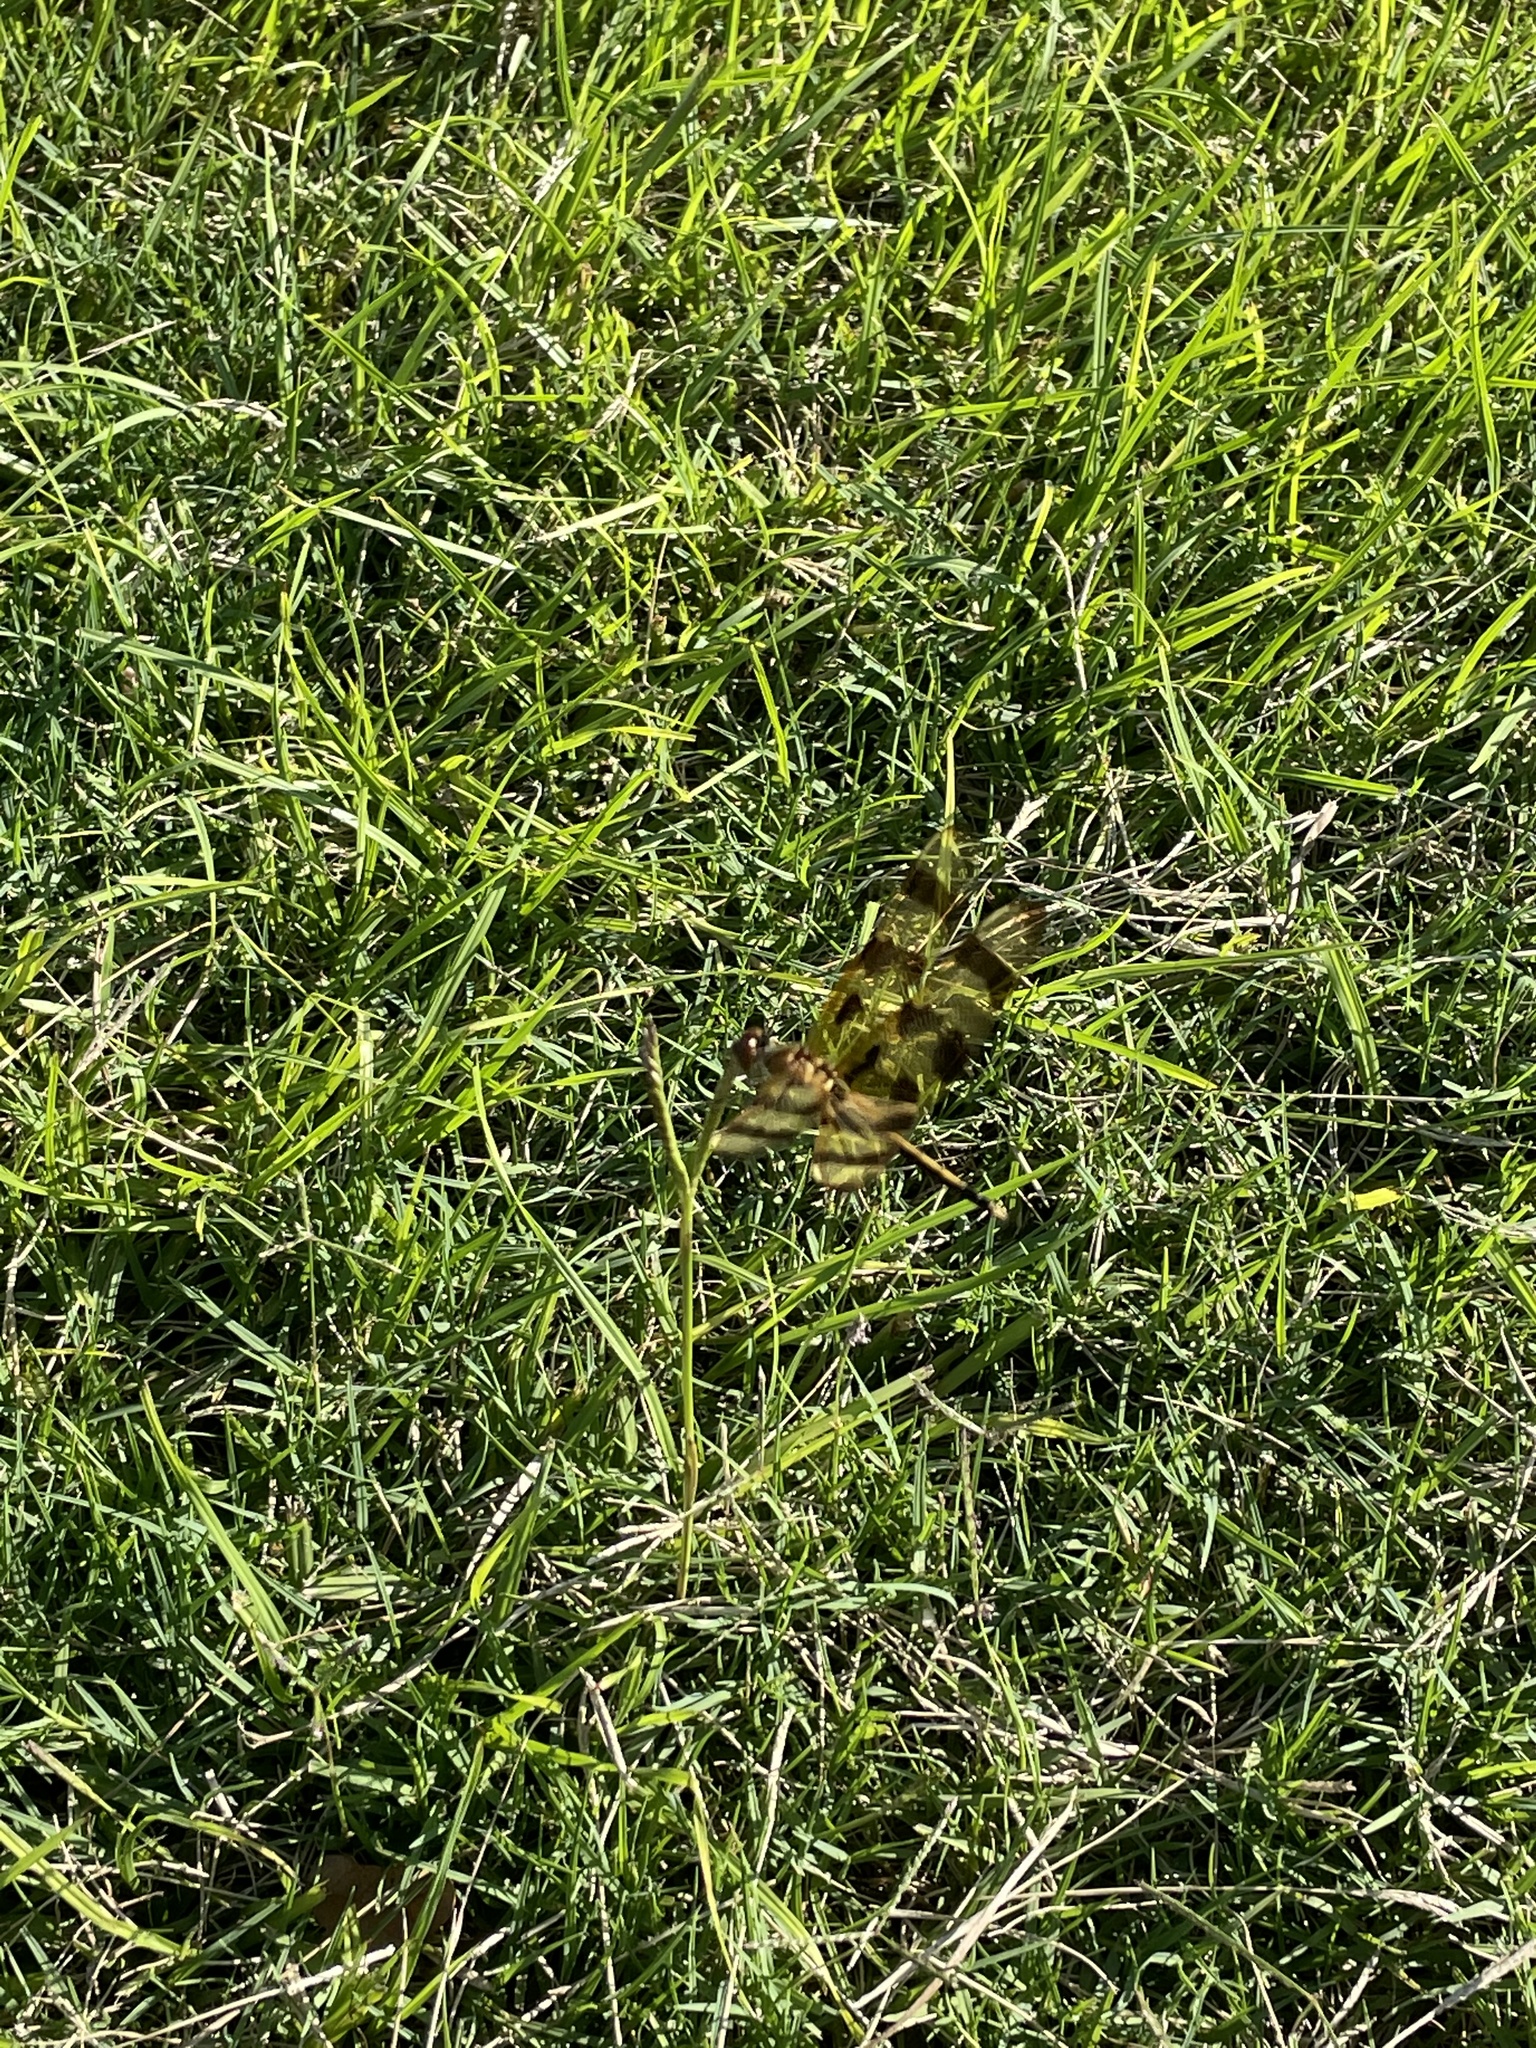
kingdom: Animalia
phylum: Arthropoda
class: Insecta
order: Odonata
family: Libellulidae
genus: Celithemis
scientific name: Celithemis eponina
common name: Halloween pennant
